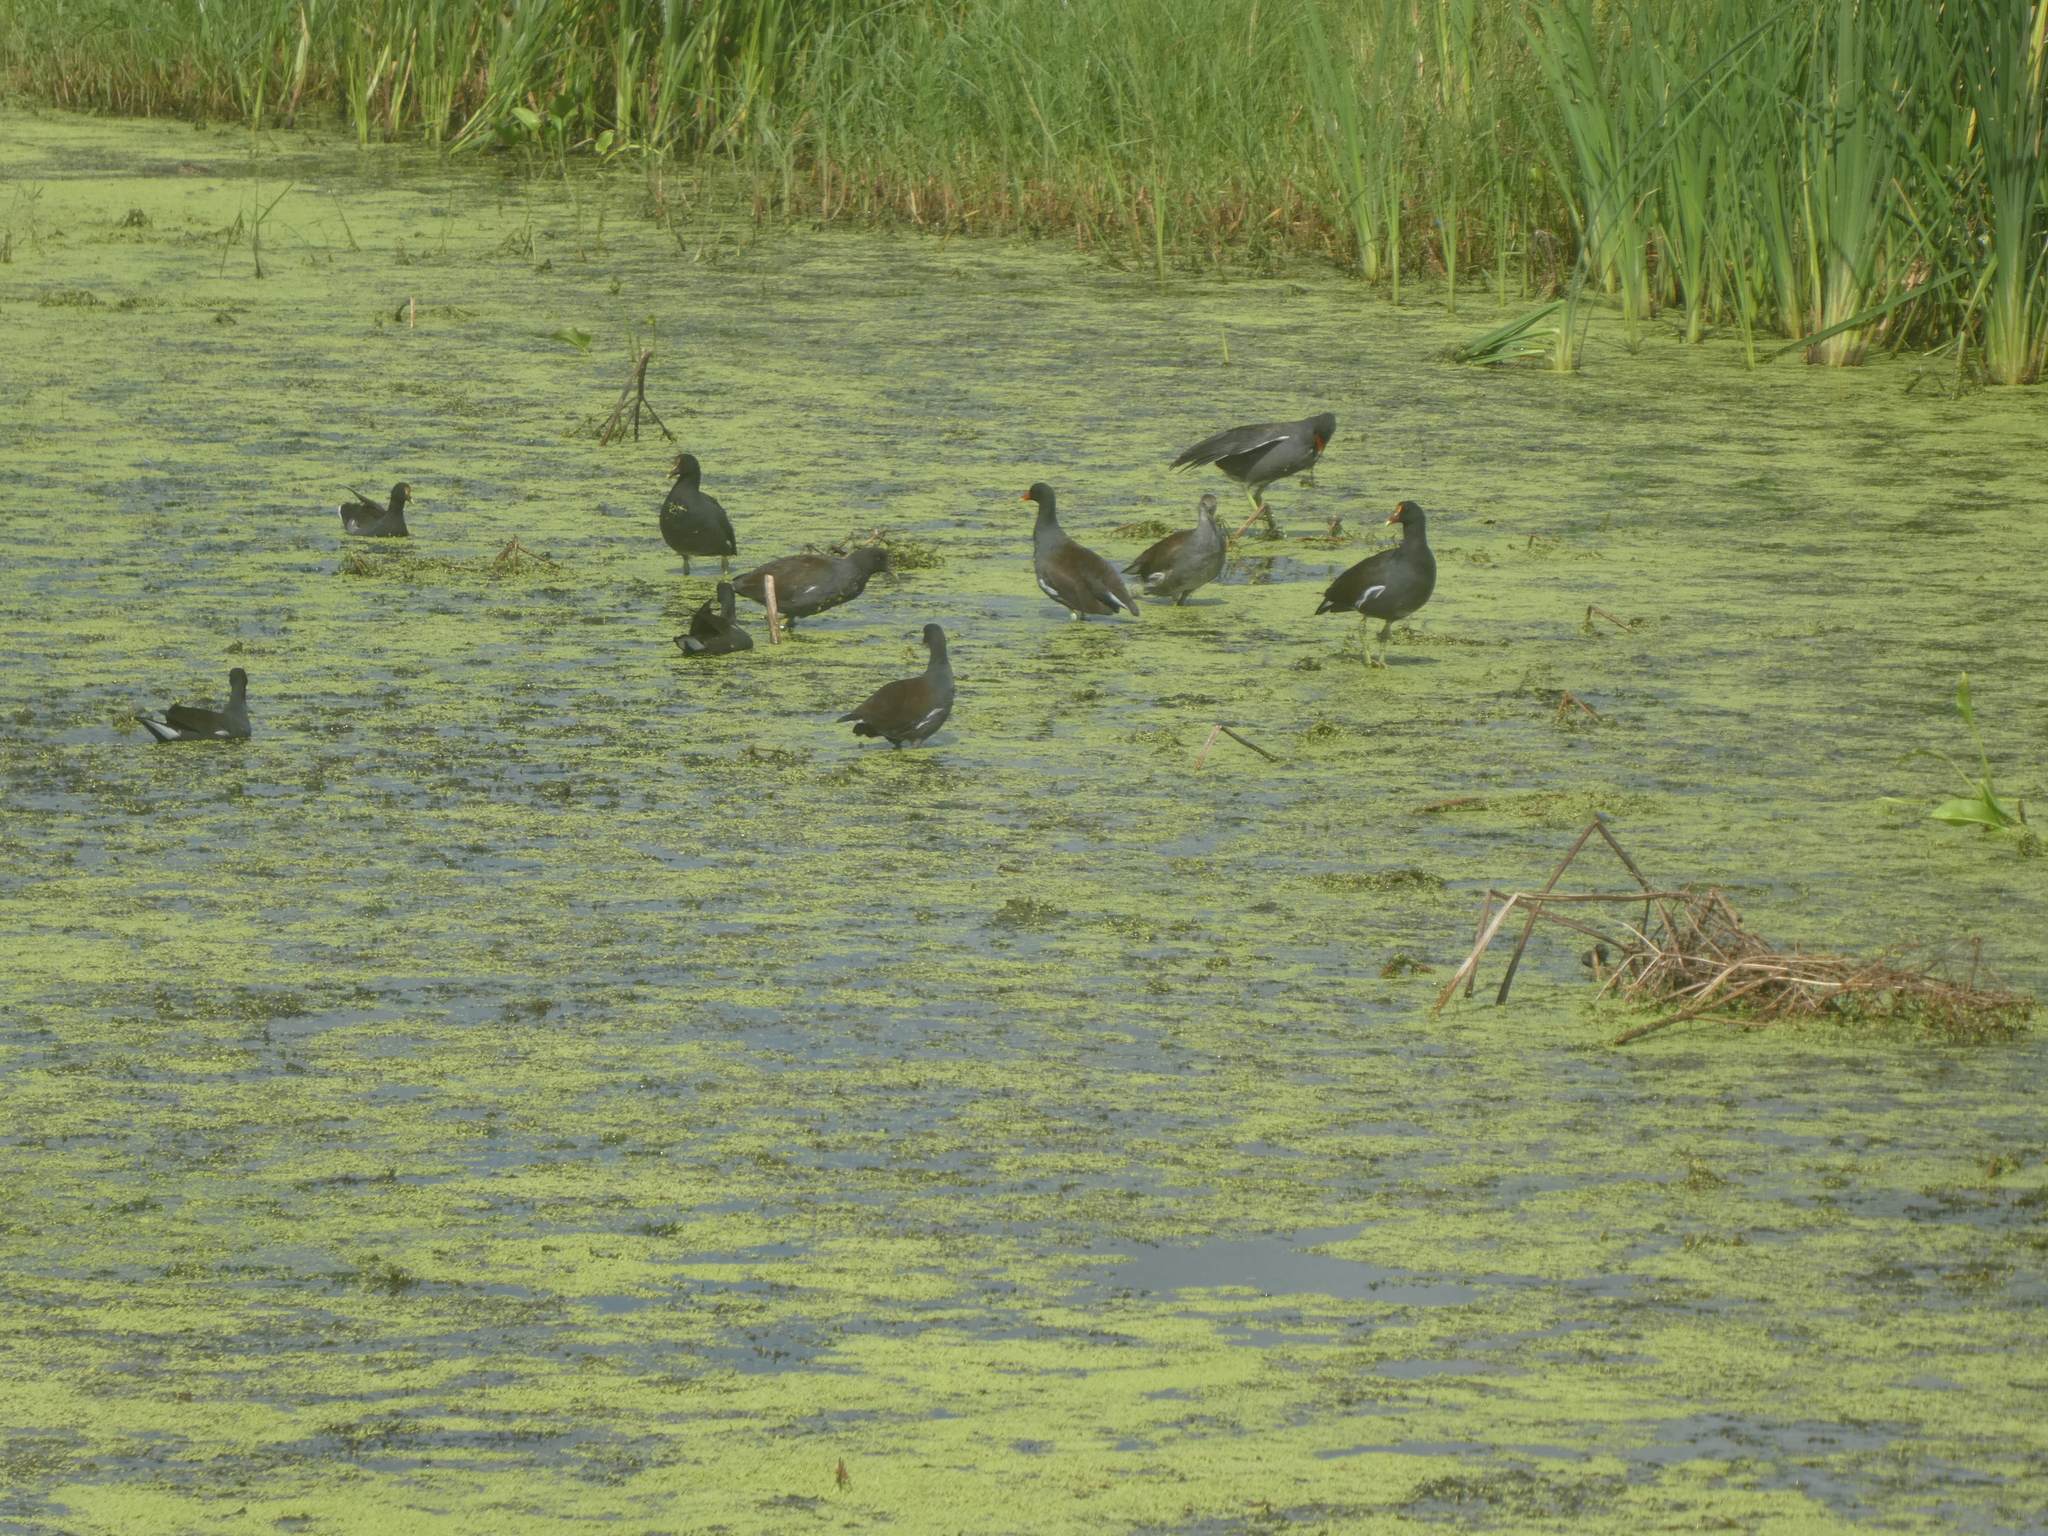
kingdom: Animalia
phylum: Chordata
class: Aves
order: Gruiformes
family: Rallidae
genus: Gallinula
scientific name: Gallinula chloropus
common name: Common moorhen
